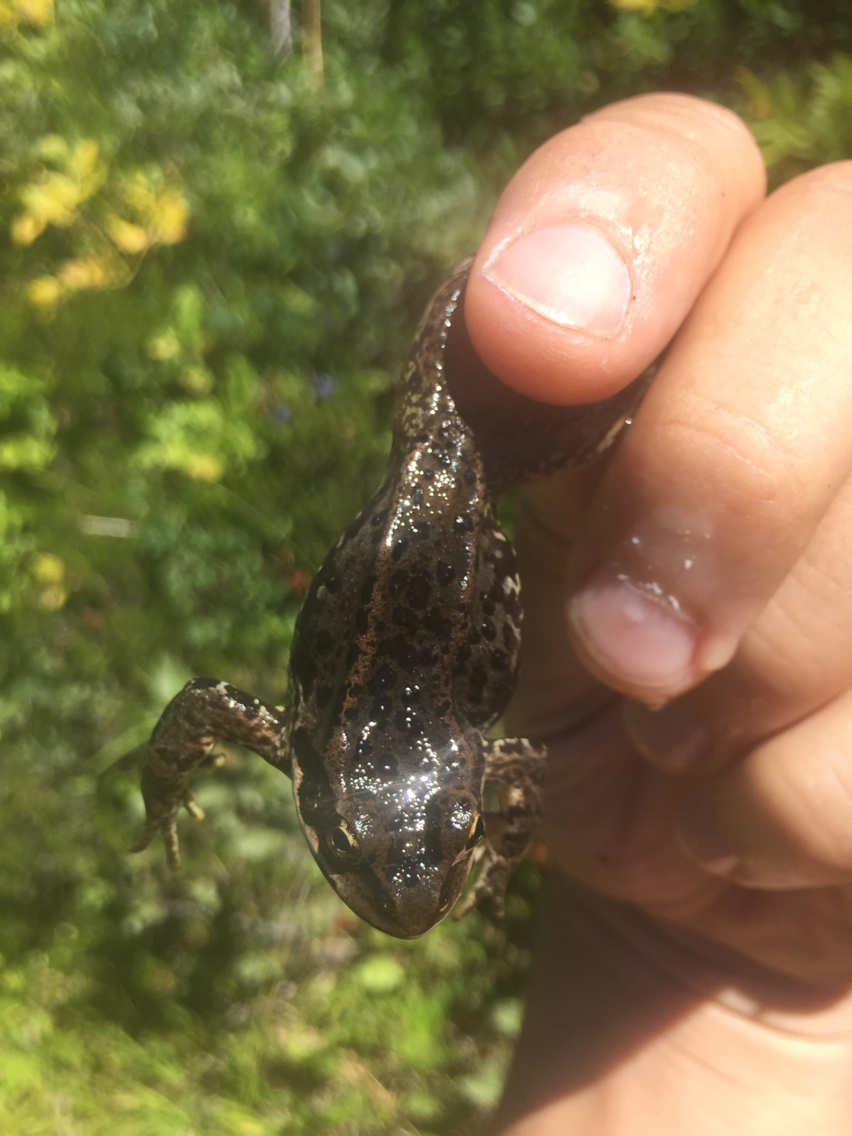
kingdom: Animalia
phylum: Chordata
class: Amphibia
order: Anura
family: Ranidae
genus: Rana
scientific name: Rana cascadae
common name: Cascades frog
